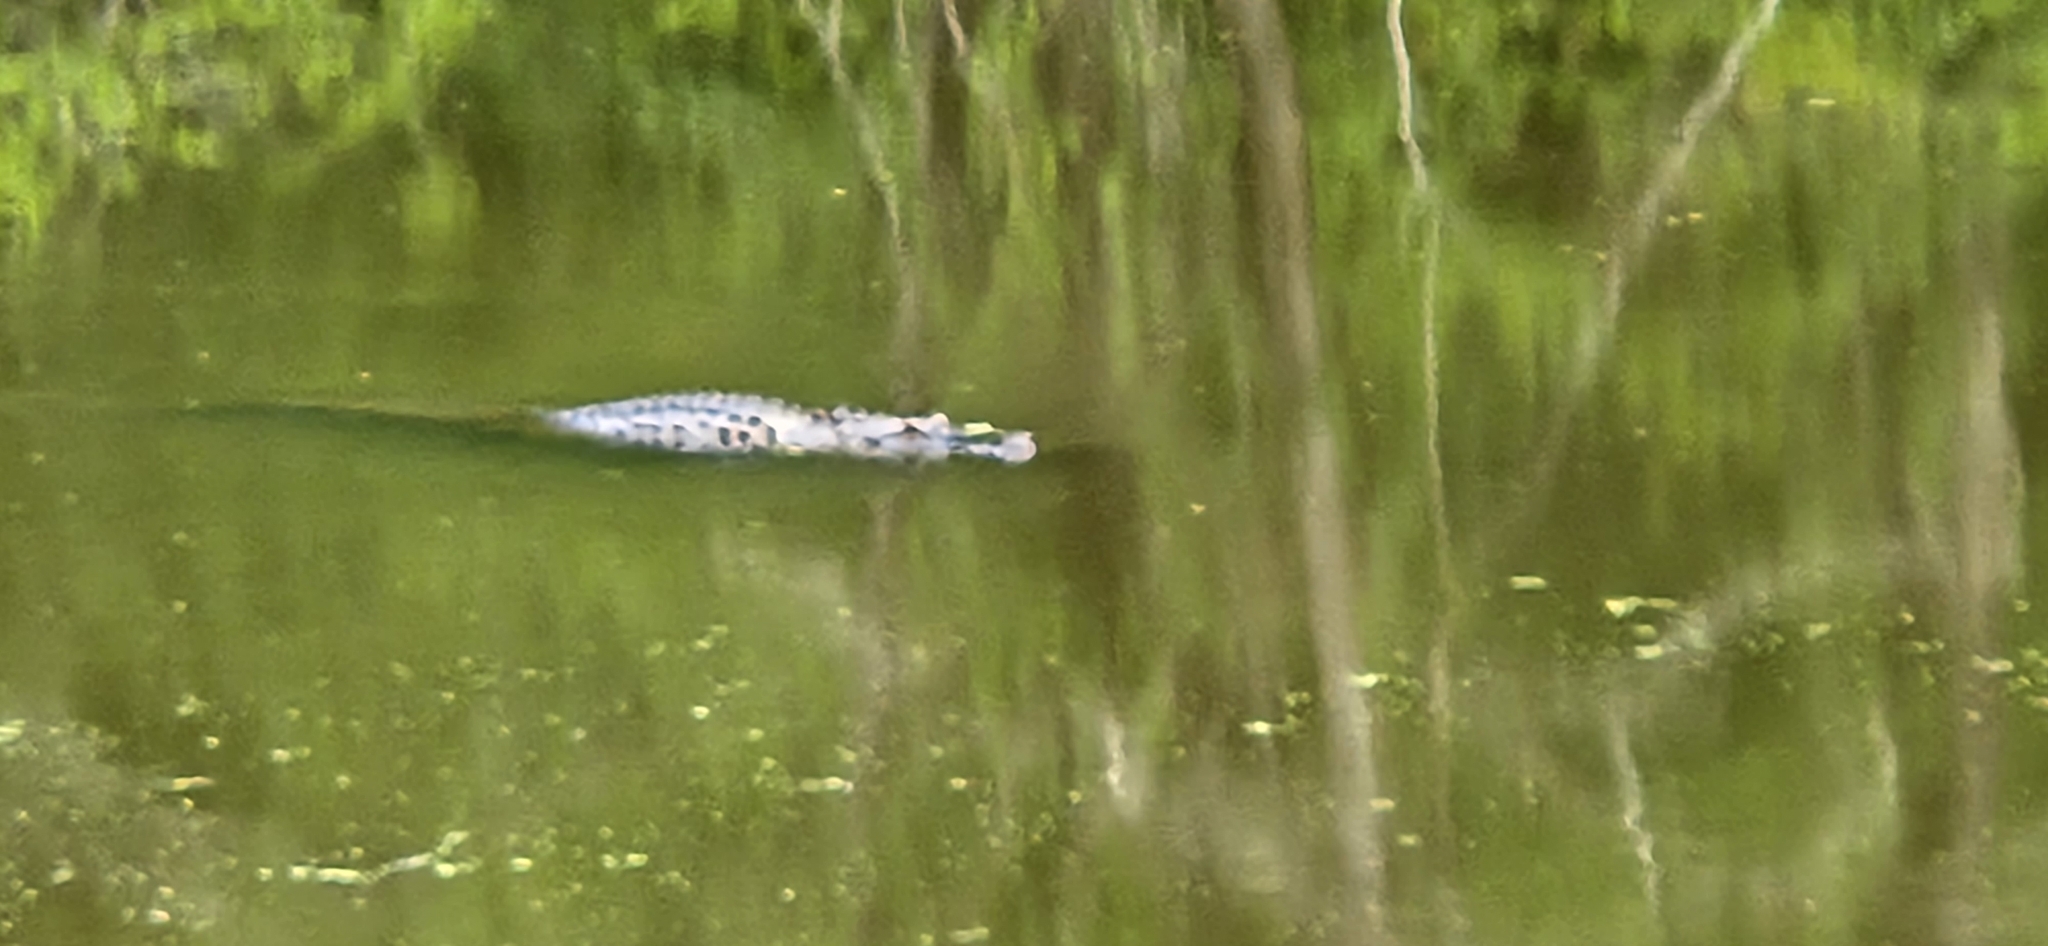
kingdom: Animalia
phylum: Chordata
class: Crocodylia
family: Alligatoridae
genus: Alligator
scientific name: Alligator mississippiensis
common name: American alligator
